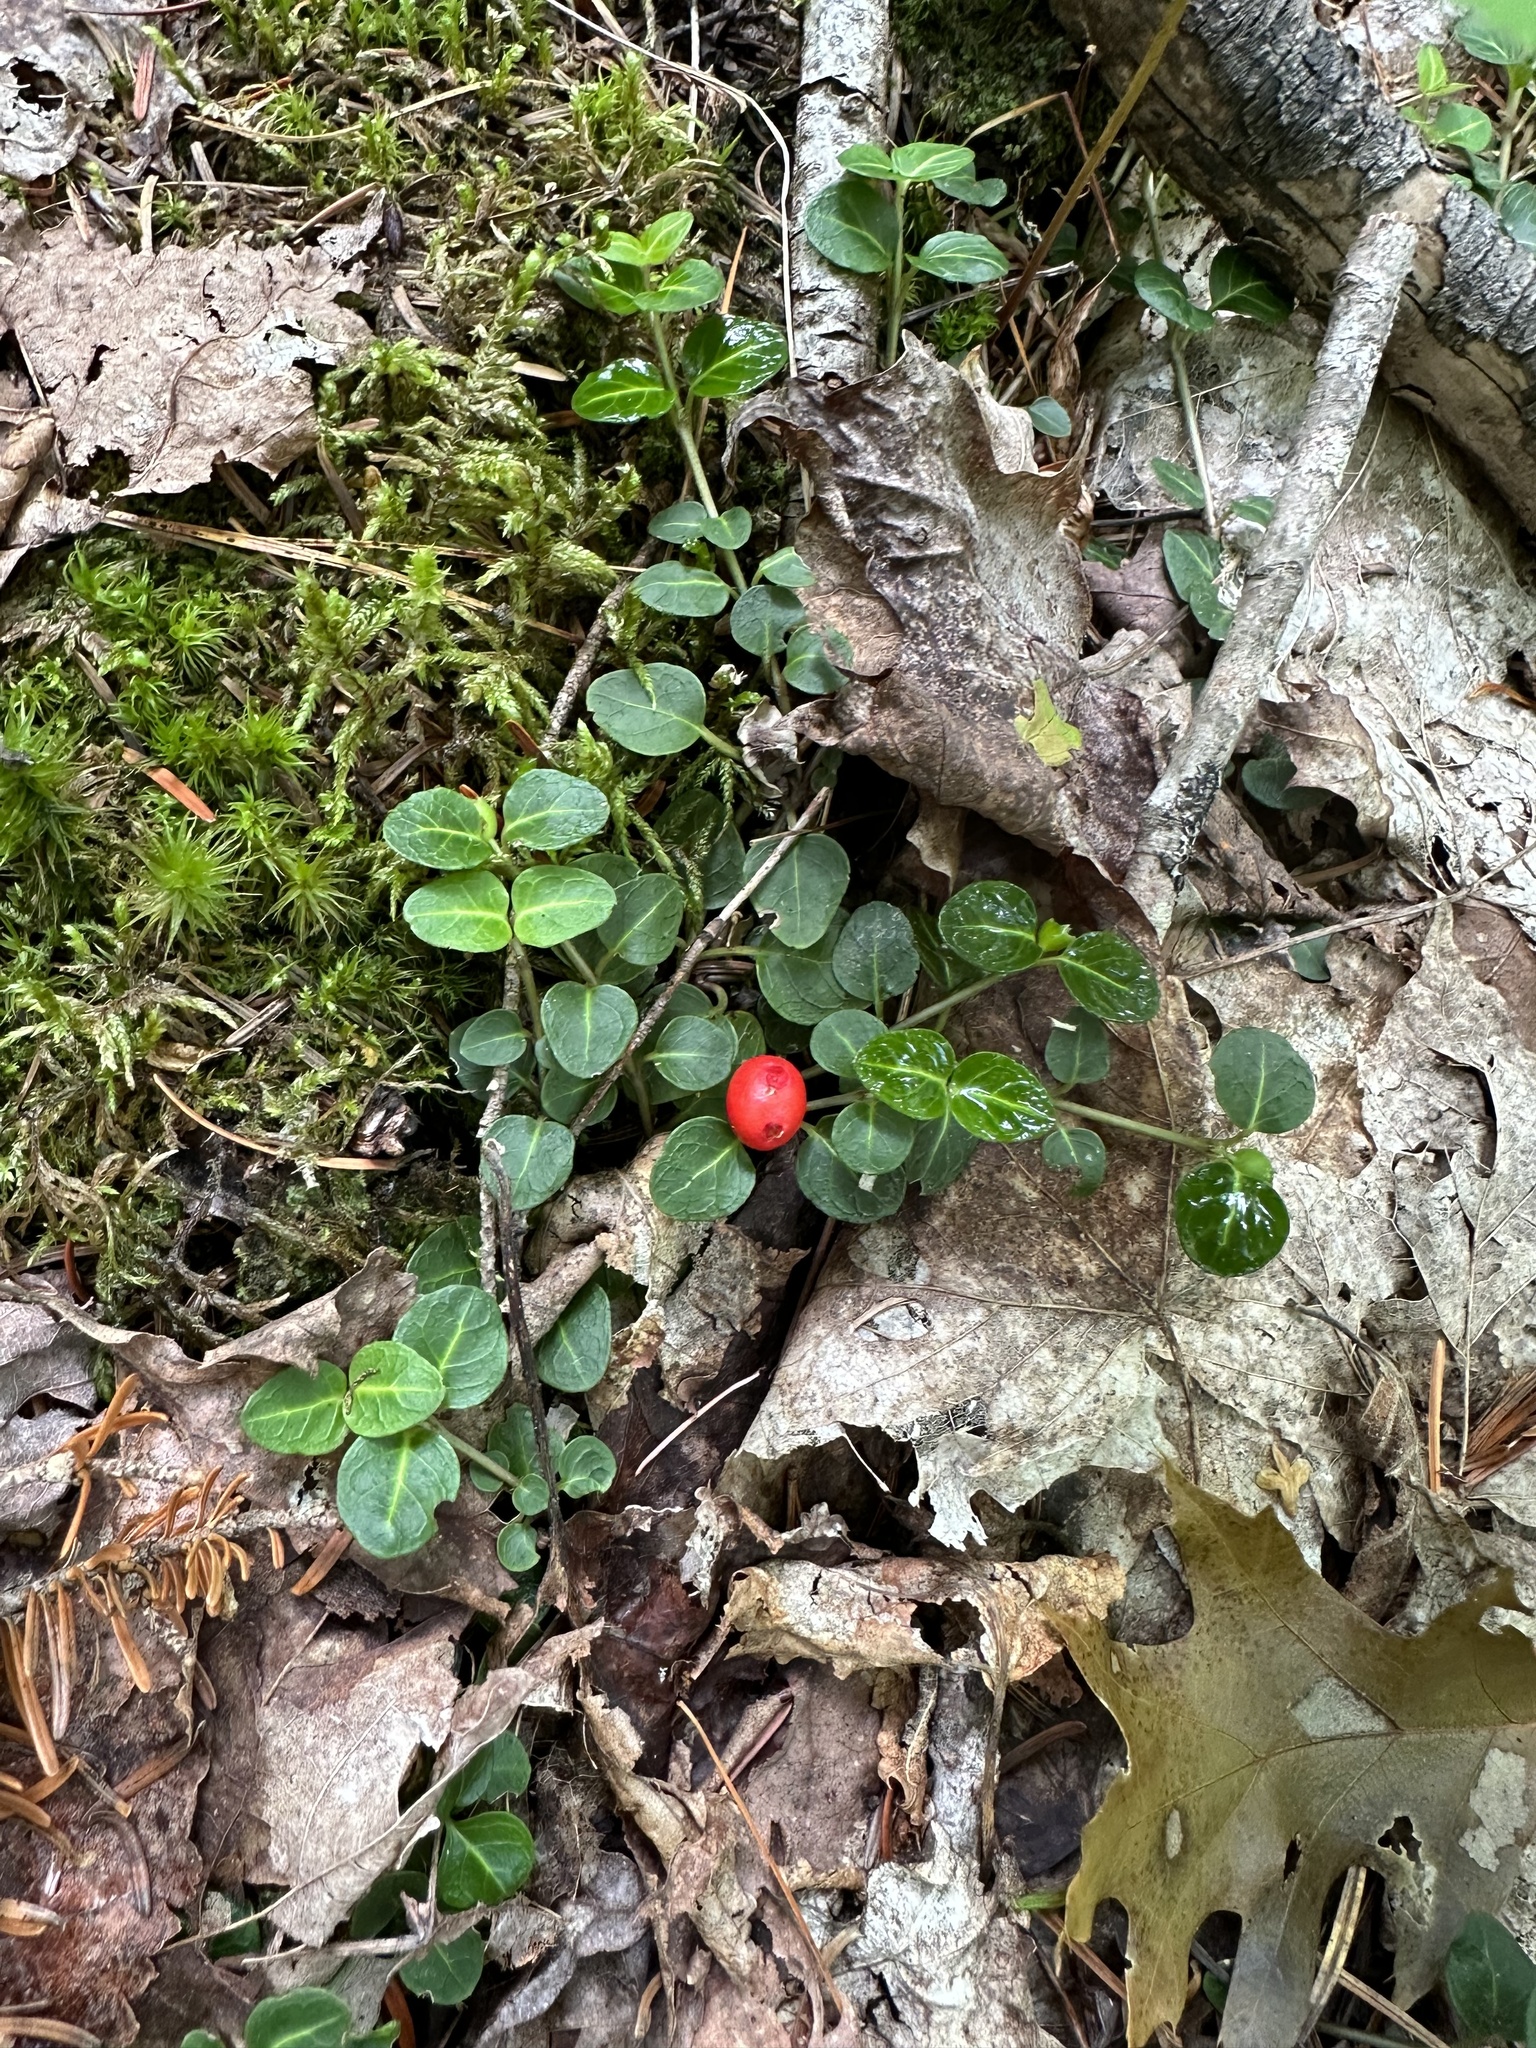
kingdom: Plantae
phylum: Tracheophyta
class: Magnoliopsida
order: Gentianales
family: Rubiaceae
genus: Mitchella
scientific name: Mitchella repens
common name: Partridge-berry
